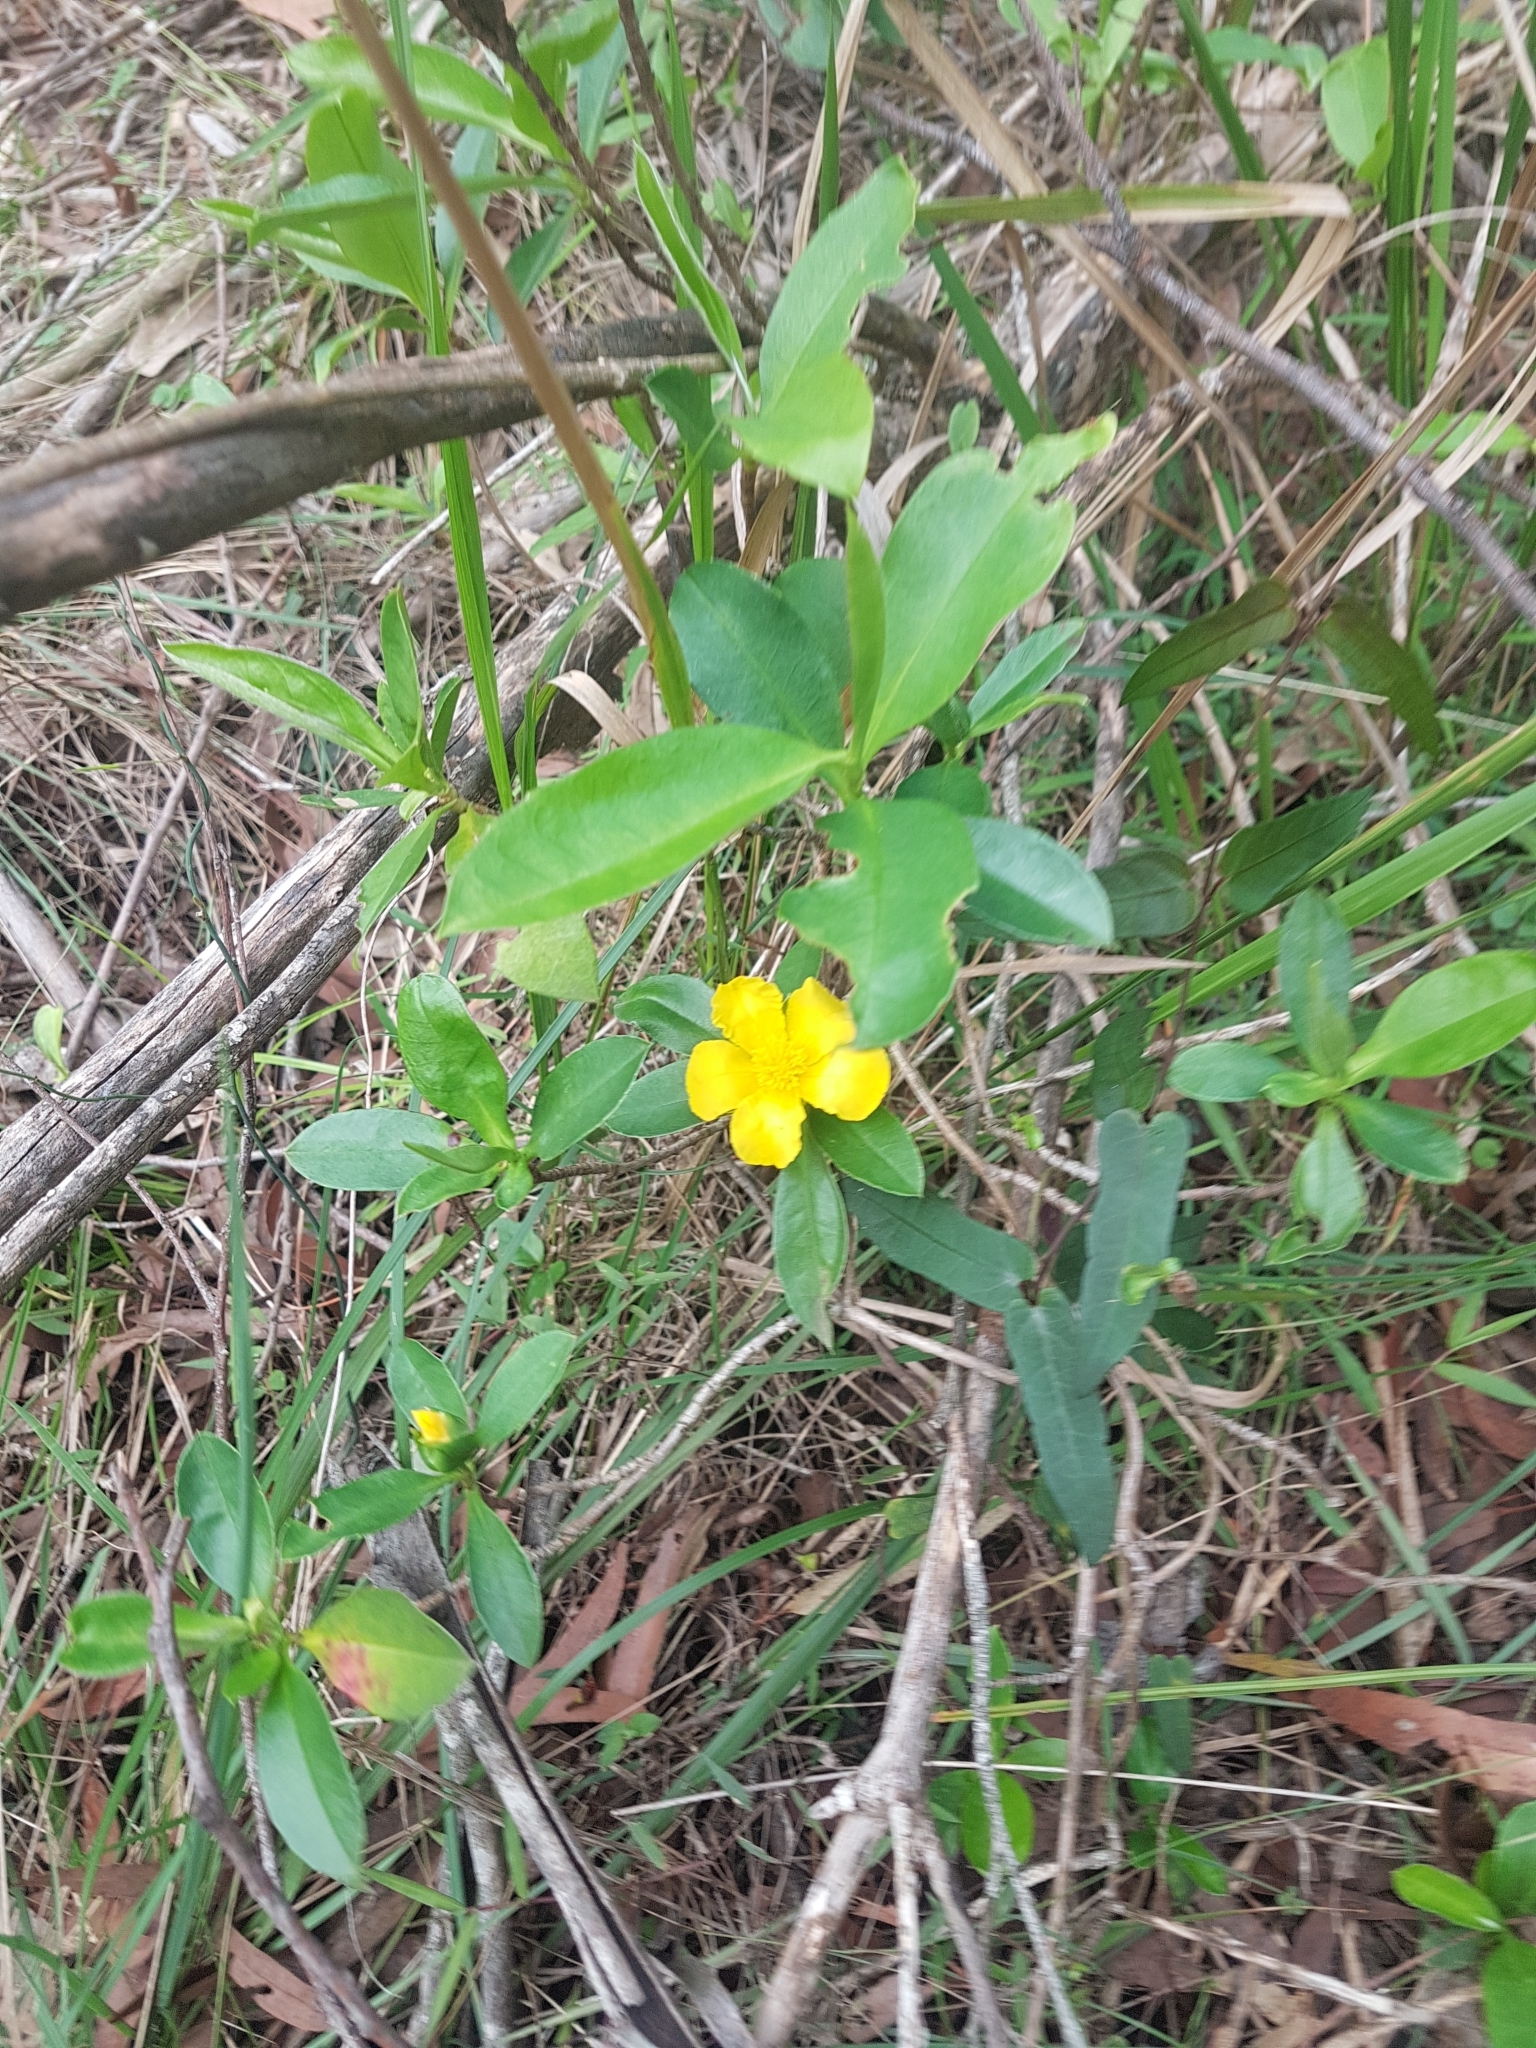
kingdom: Plantae
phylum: Tracheophyta
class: Magnoliopsida
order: Dilleniales
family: Dilleniaceae
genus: Hibbertia
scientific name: Hibbertia scandens
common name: Climbing guinea-flower
